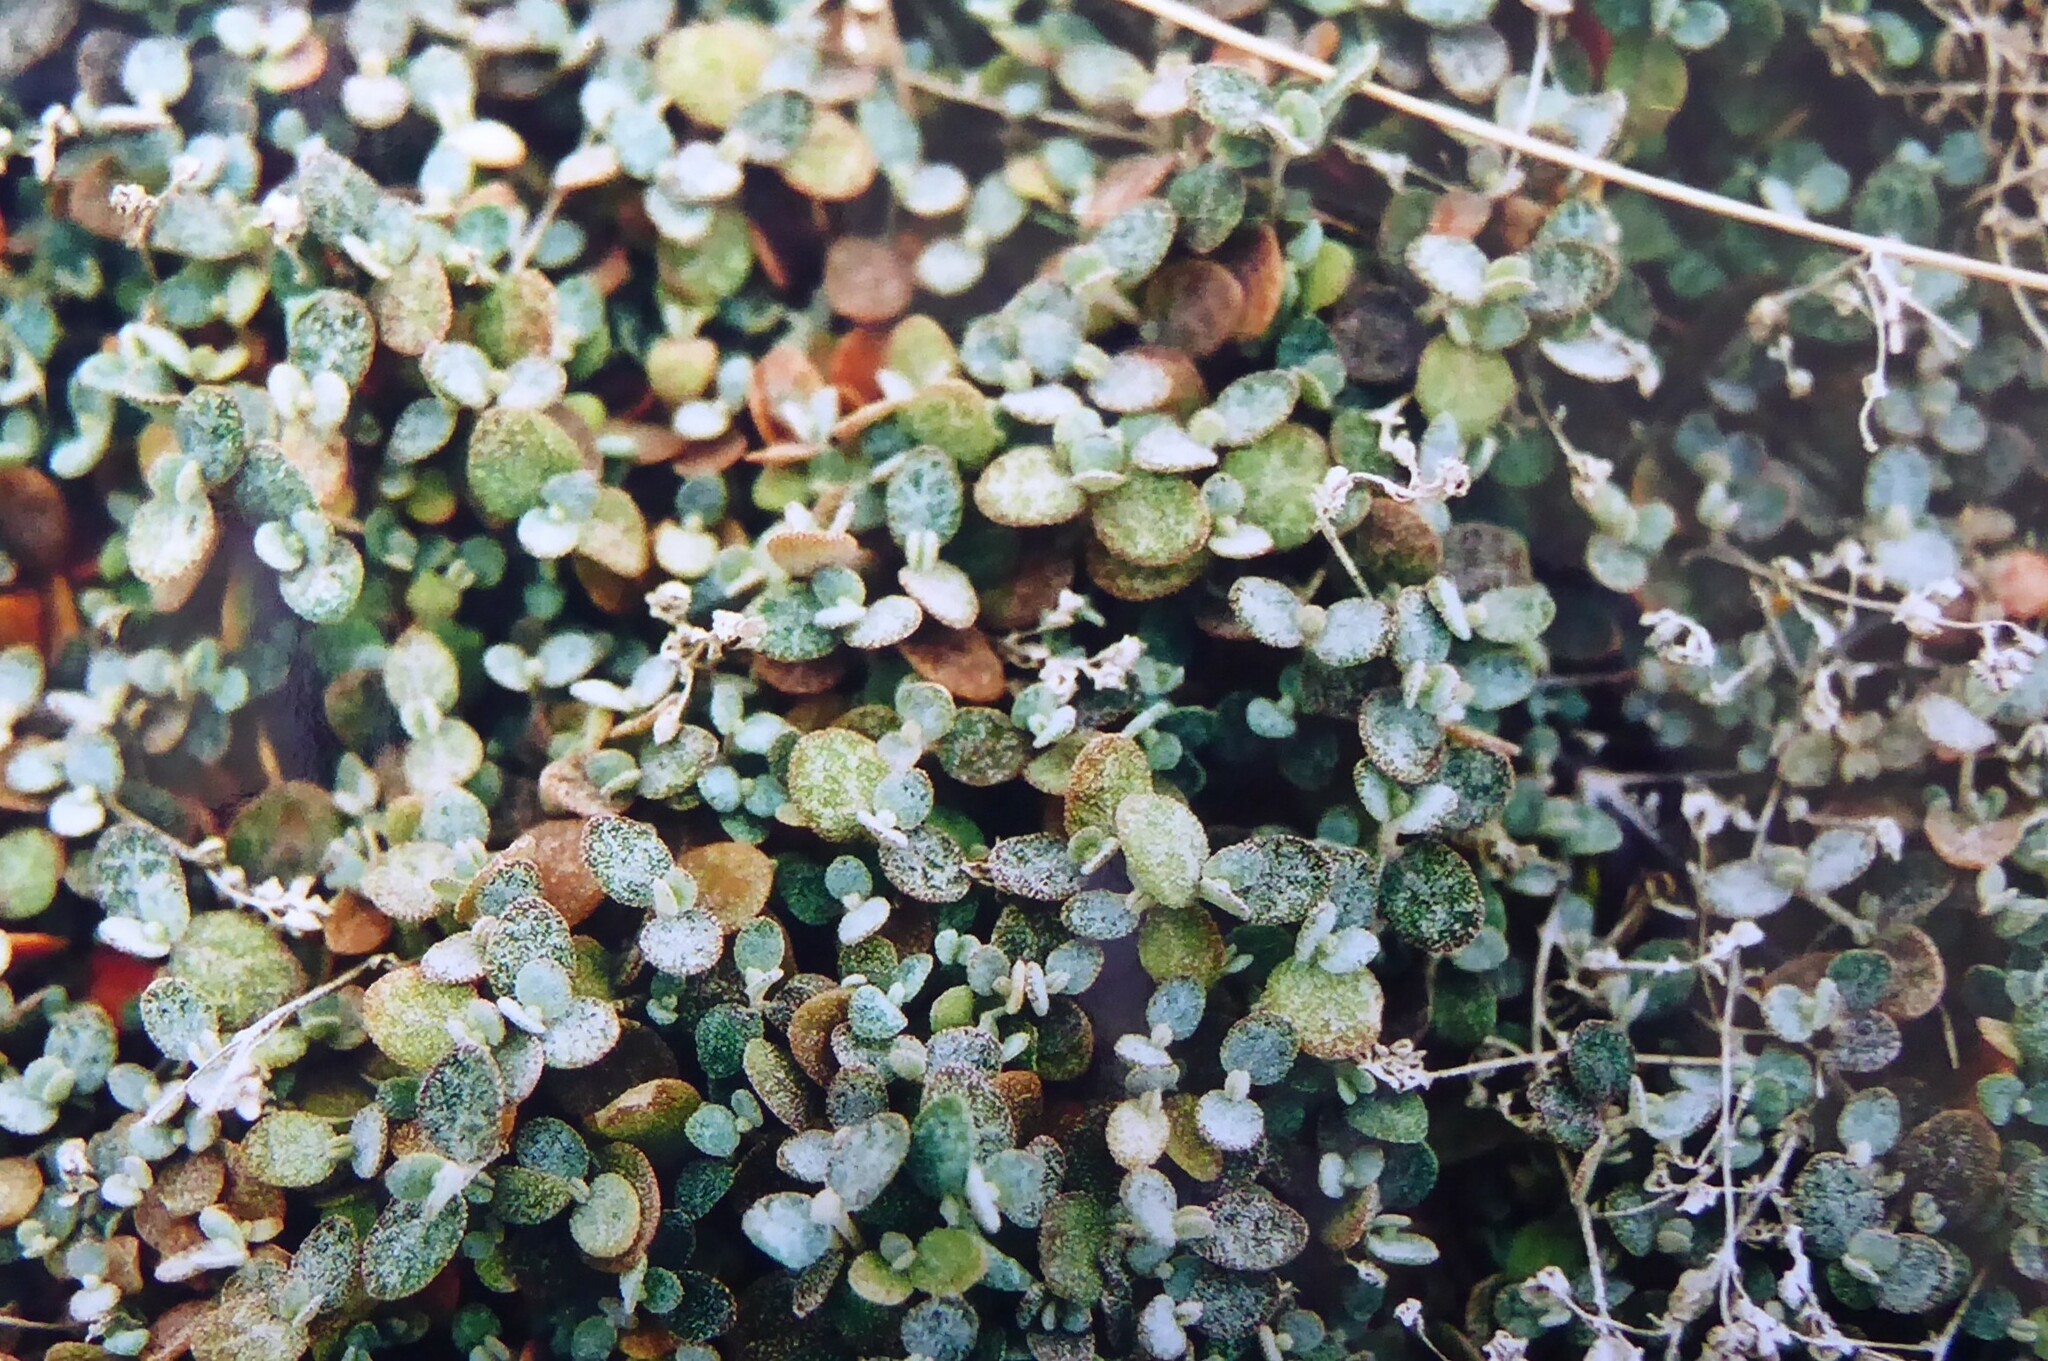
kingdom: Plantae
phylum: Tracheophyta
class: Magnoliopsida
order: Caryophyllales
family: Amaranthaceae
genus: Atriplex
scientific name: Atriplex buchananii
